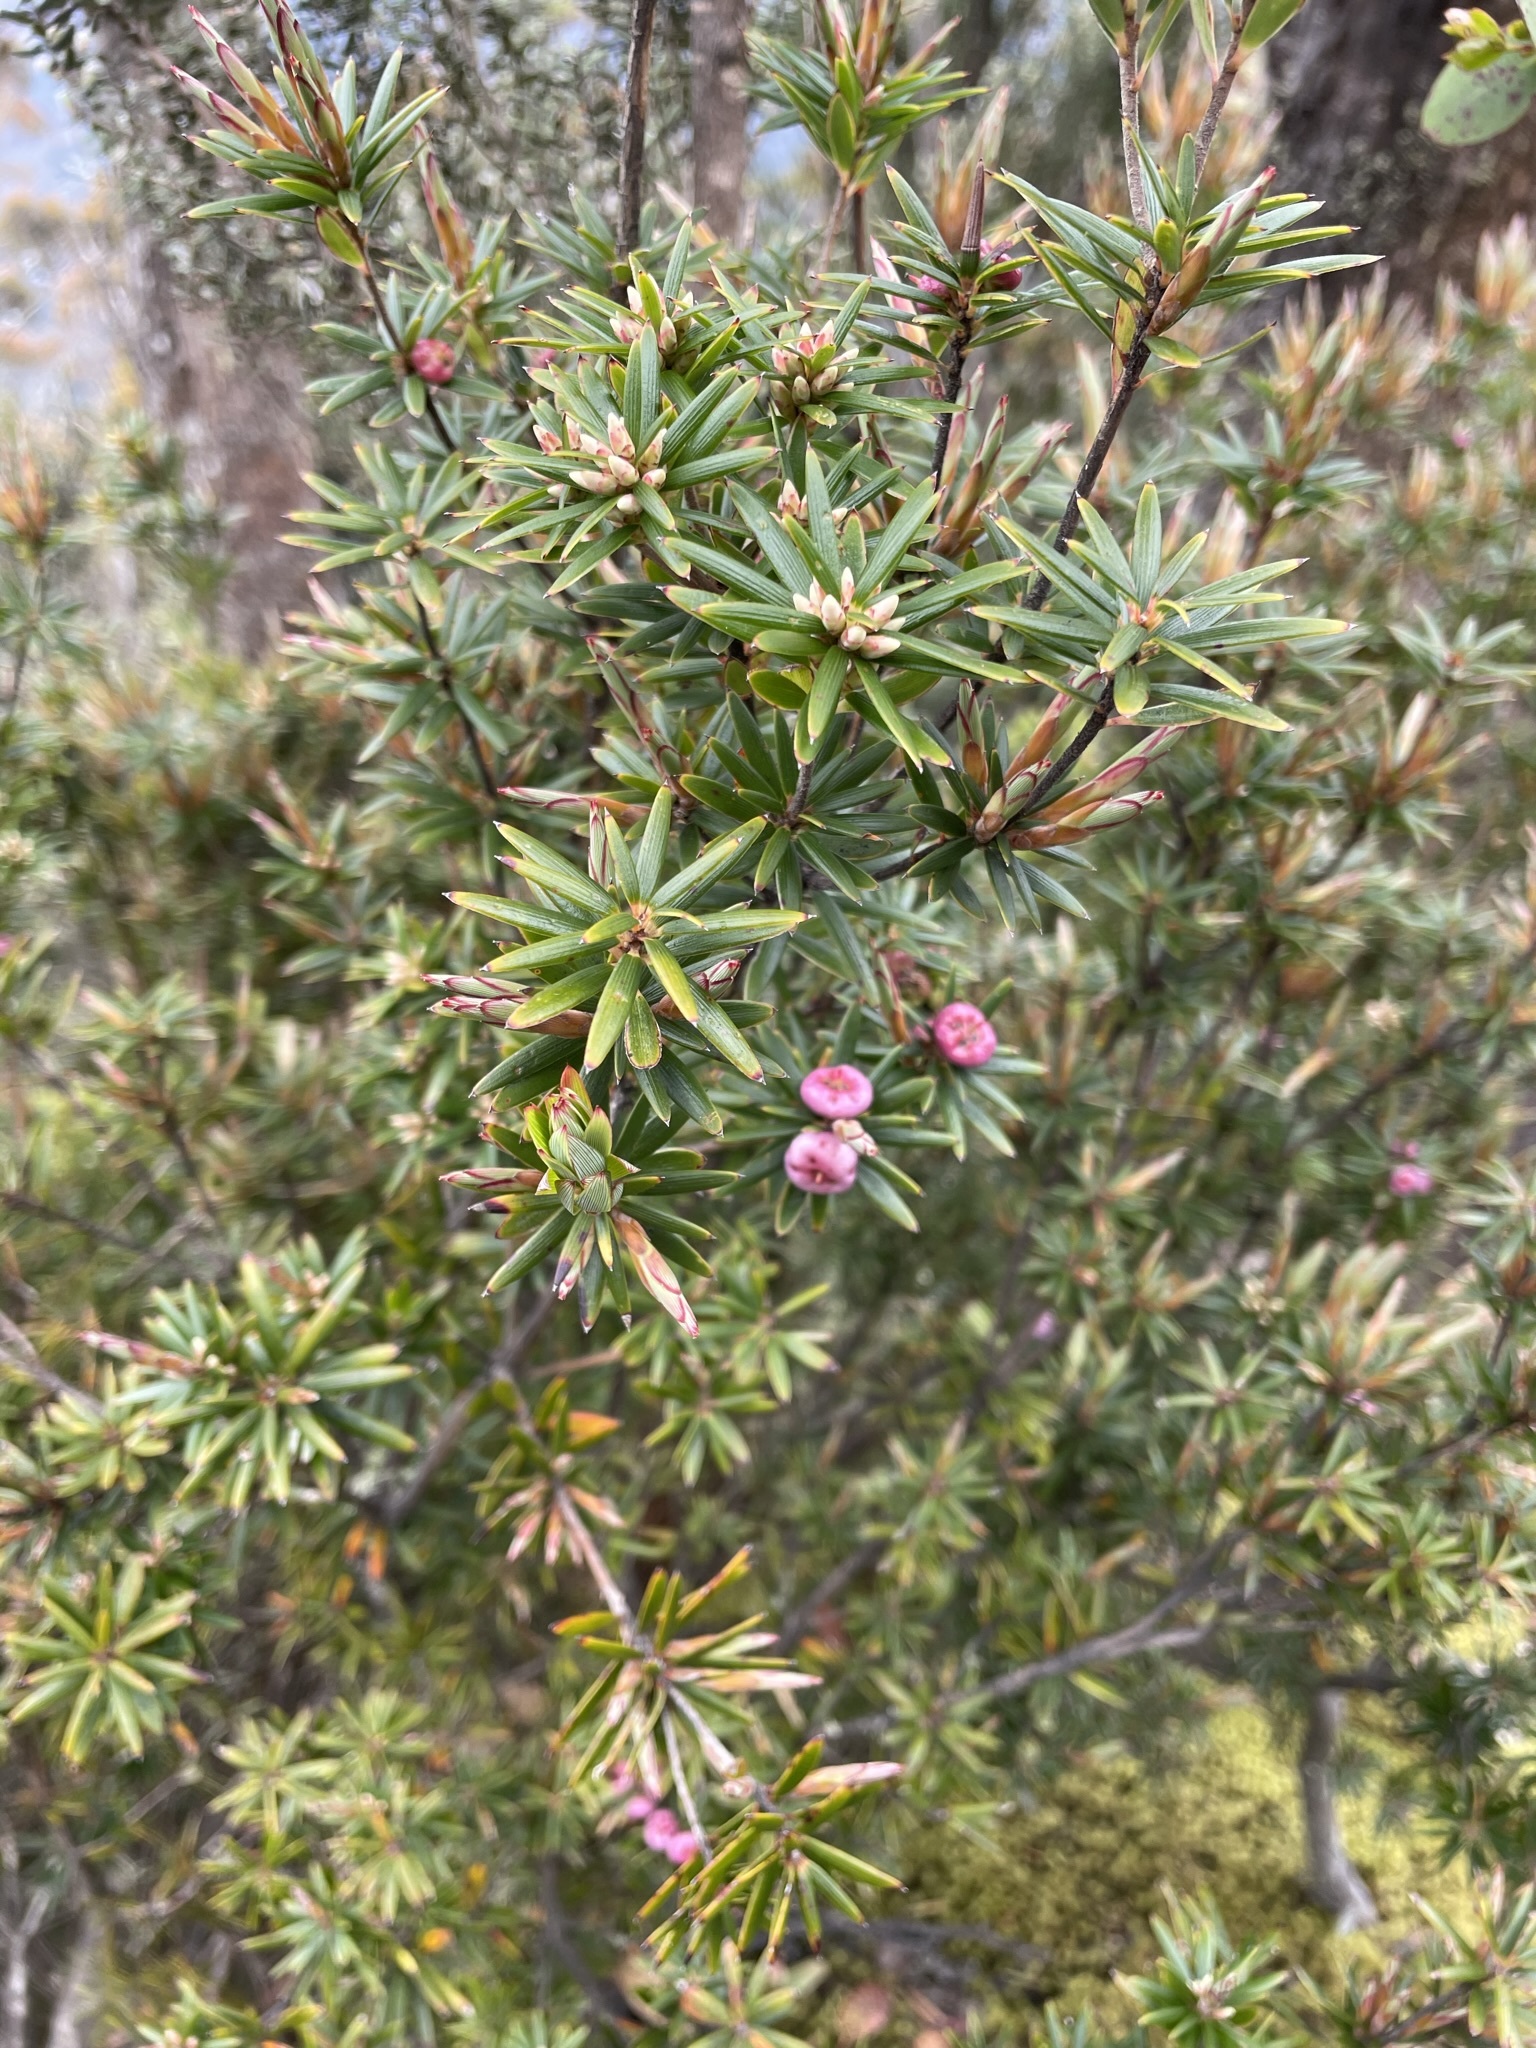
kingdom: Plantae
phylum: Tracheophyta
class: Magnoliopsida
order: Ericales
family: Ericaceae
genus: Cyathodes
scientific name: Cyathodes glauca
